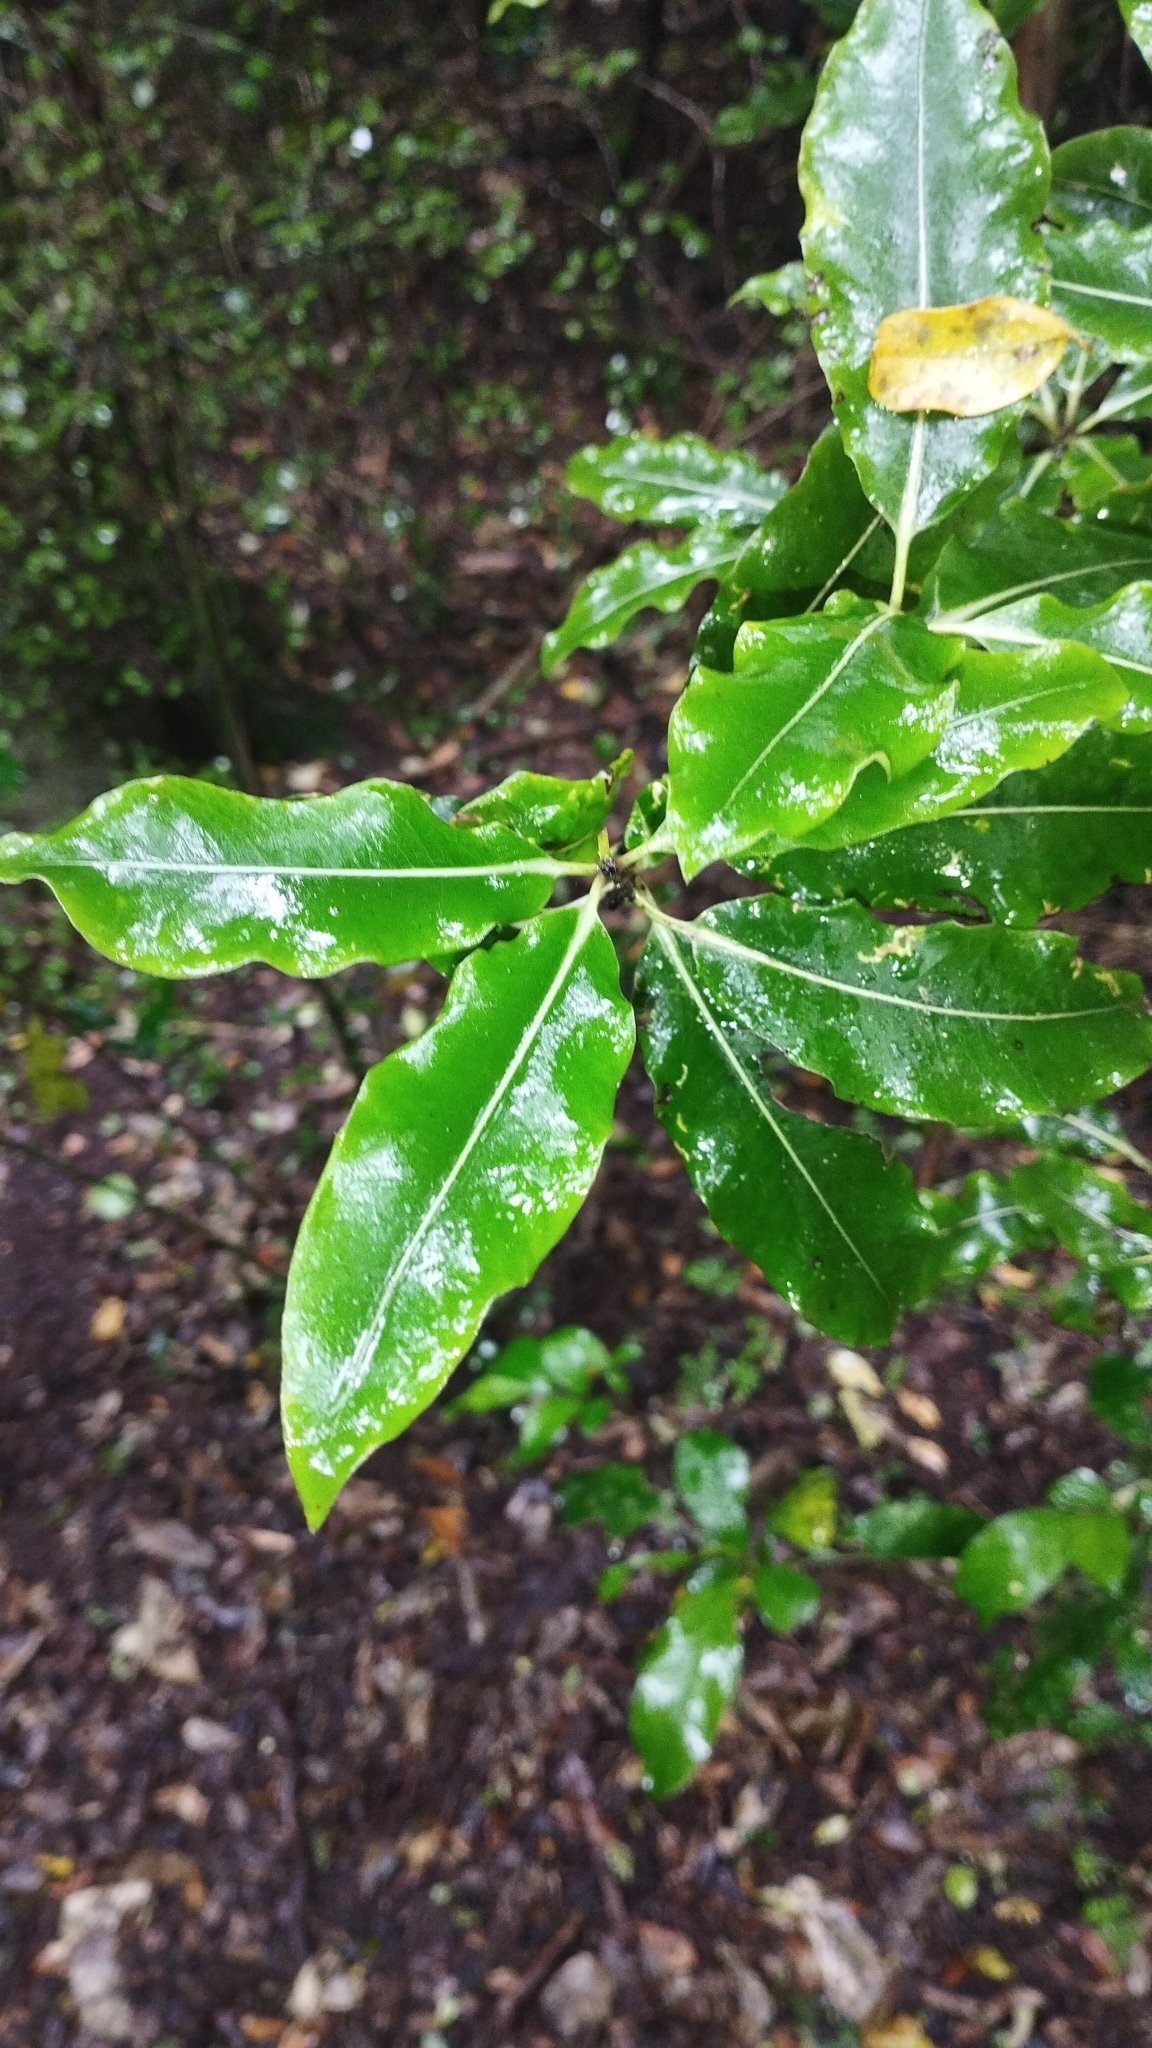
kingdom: Plantae
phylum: Tracheophyta
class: Magnoliopsida
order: Apiales
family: Pittosporaceae
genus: Pittosporum
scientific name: Pittosporum eugenioides
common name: Lemonwood
